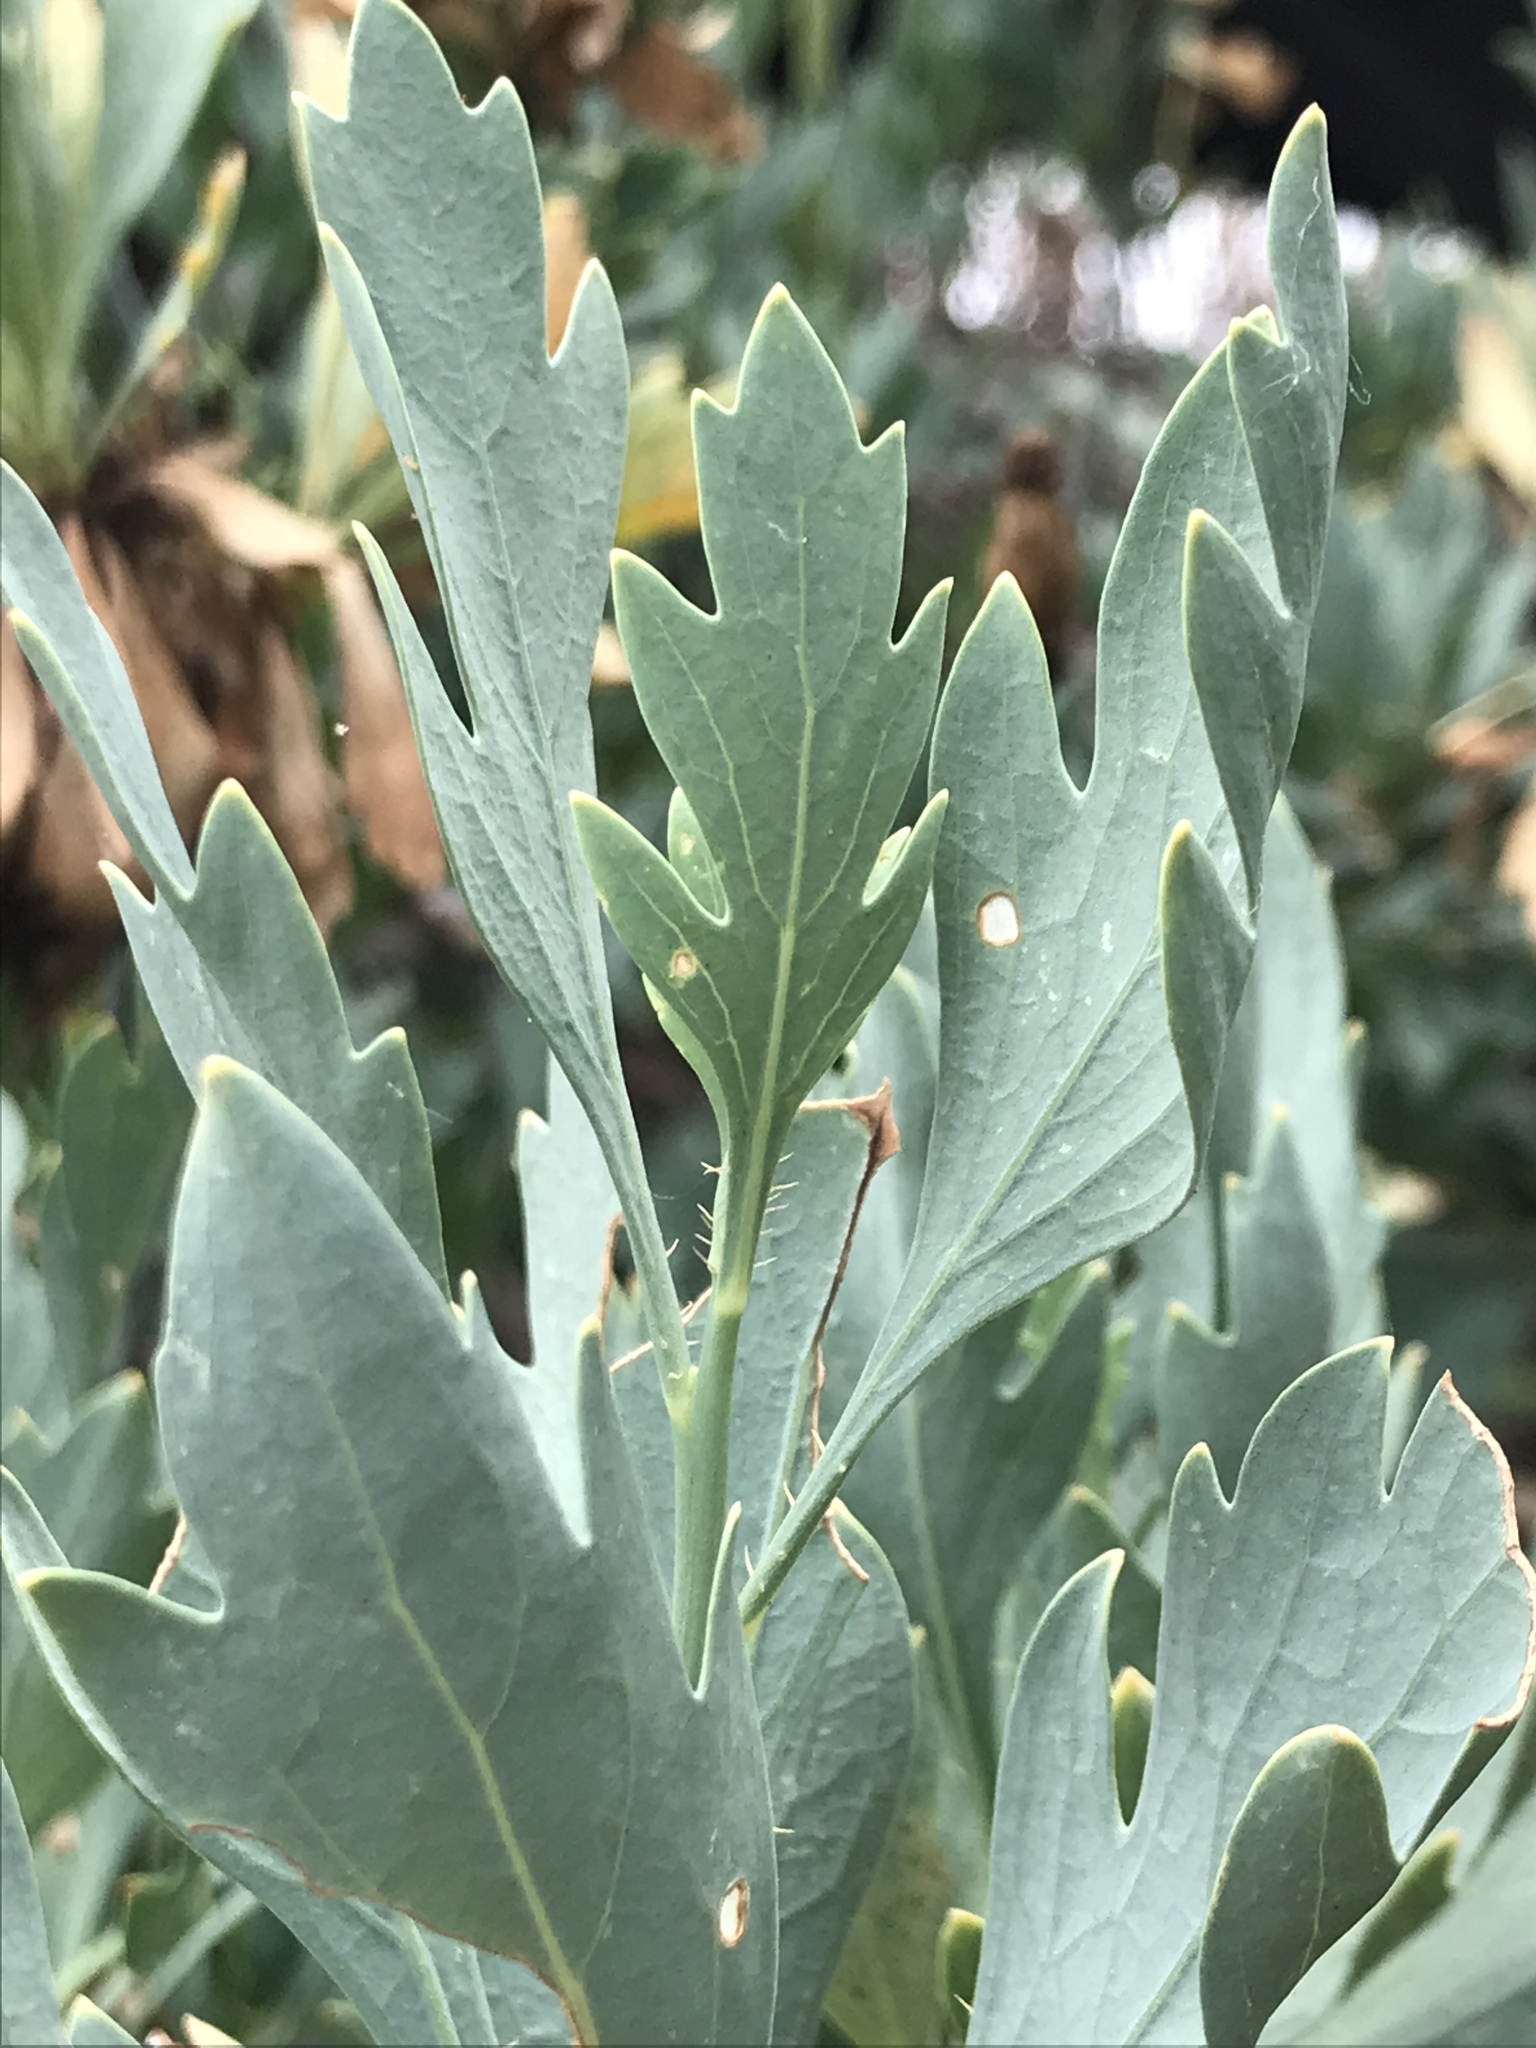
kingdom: Plantae
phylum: Tracheophyta
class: Magnoliopsida
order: Ranunculales
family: Papaveraceae
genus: Romneya
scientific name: Romneya trichocalyx
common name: Hairy matilija-poppy
